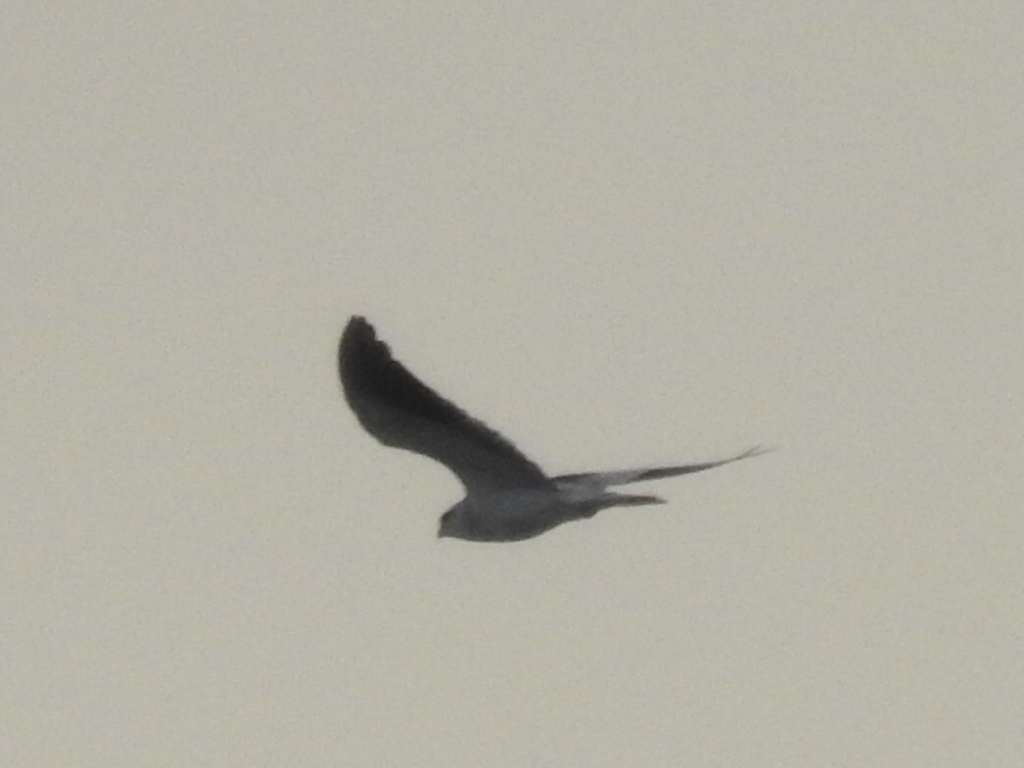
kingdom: Animalia
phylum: Chordata
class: Aves
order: Accipitriformes
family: Accipitridae
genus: Elanus
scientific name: Elanus caeruleus
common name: Black-winged kite
